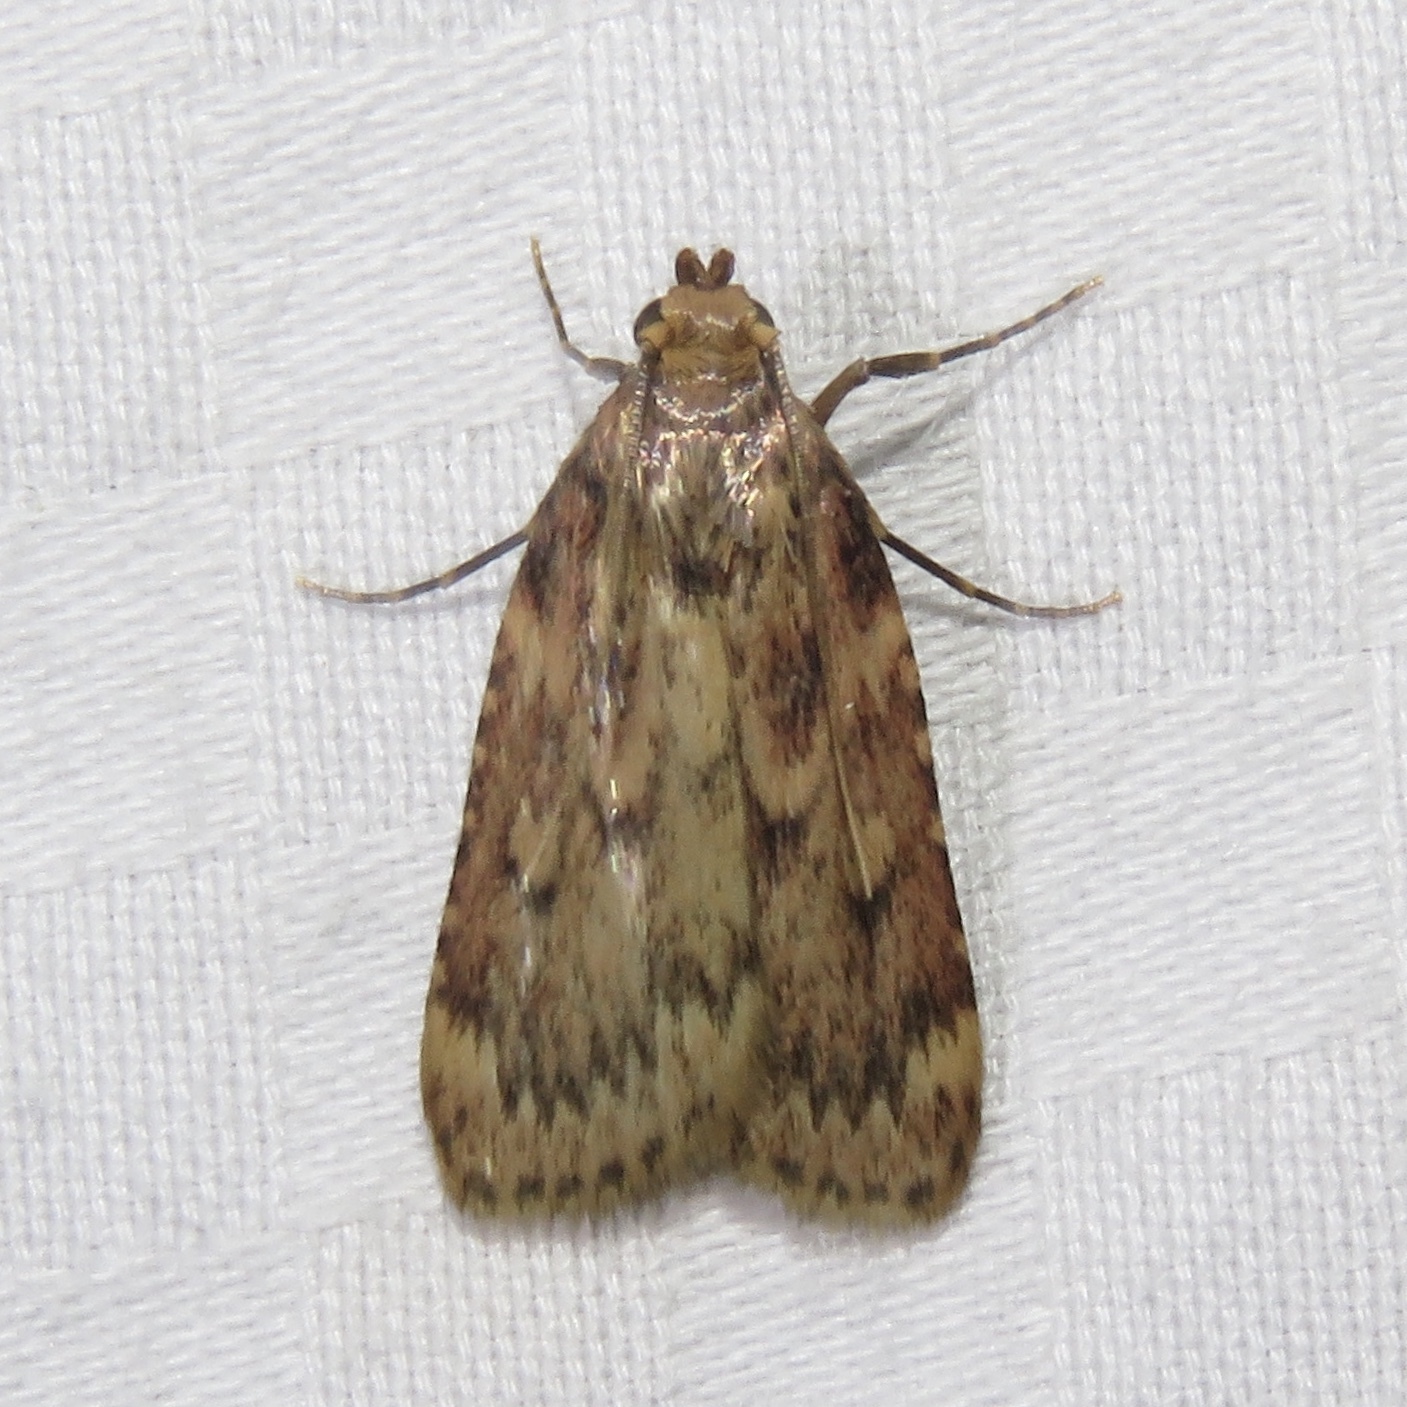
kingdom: Animalia
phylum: Arthropoda
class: Insecta
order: Lepidoptera
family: Pyralidae
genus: Aglossa
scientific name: Aglossa cuprina
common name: Grease moth
